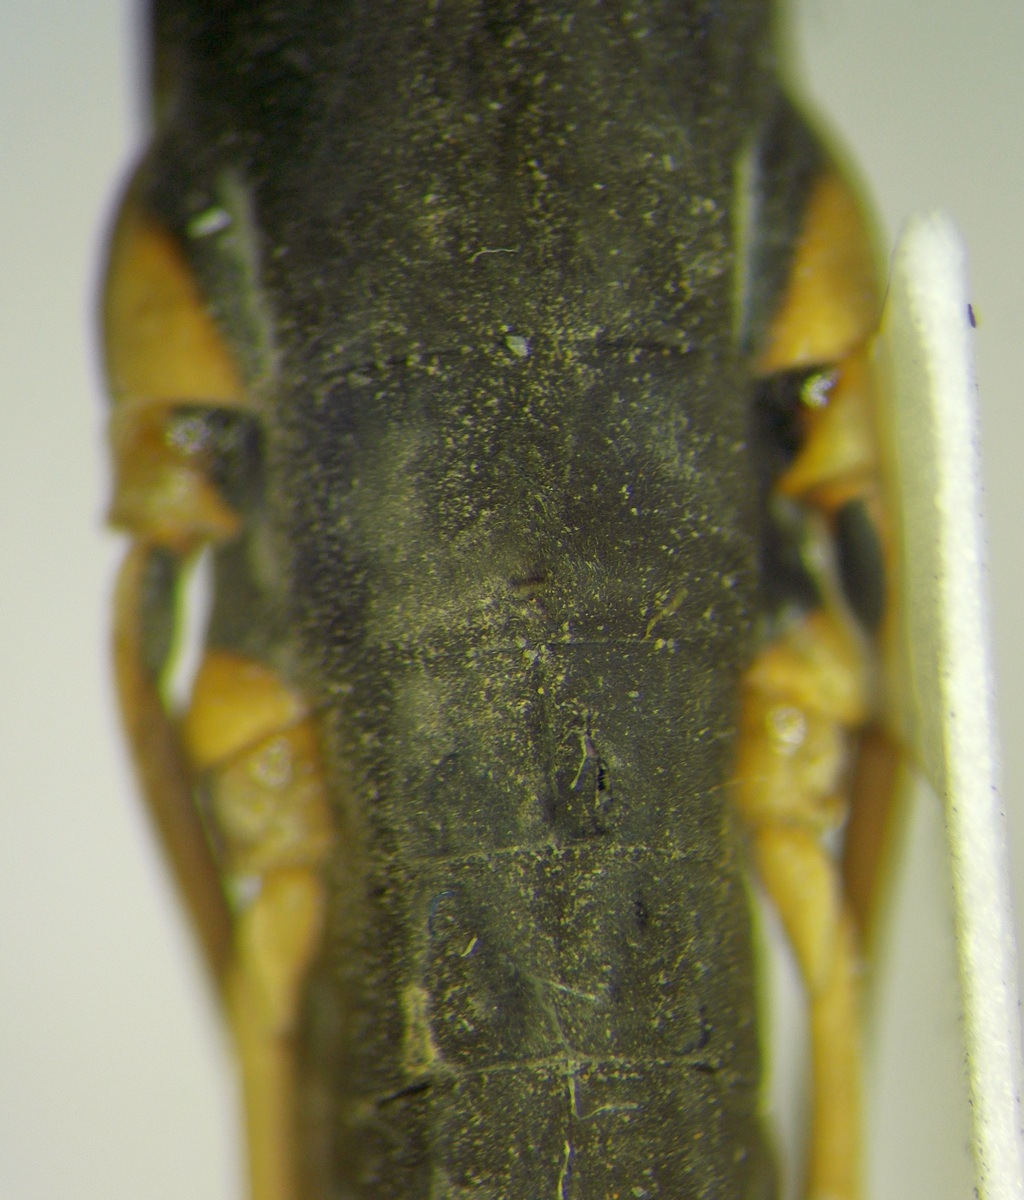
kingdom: Animalia
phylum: Arthropoda
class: Insecta
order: Hemiptera
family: Gerridae
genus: Gerris
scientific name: Gerris costae
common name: Moorland pondskater
